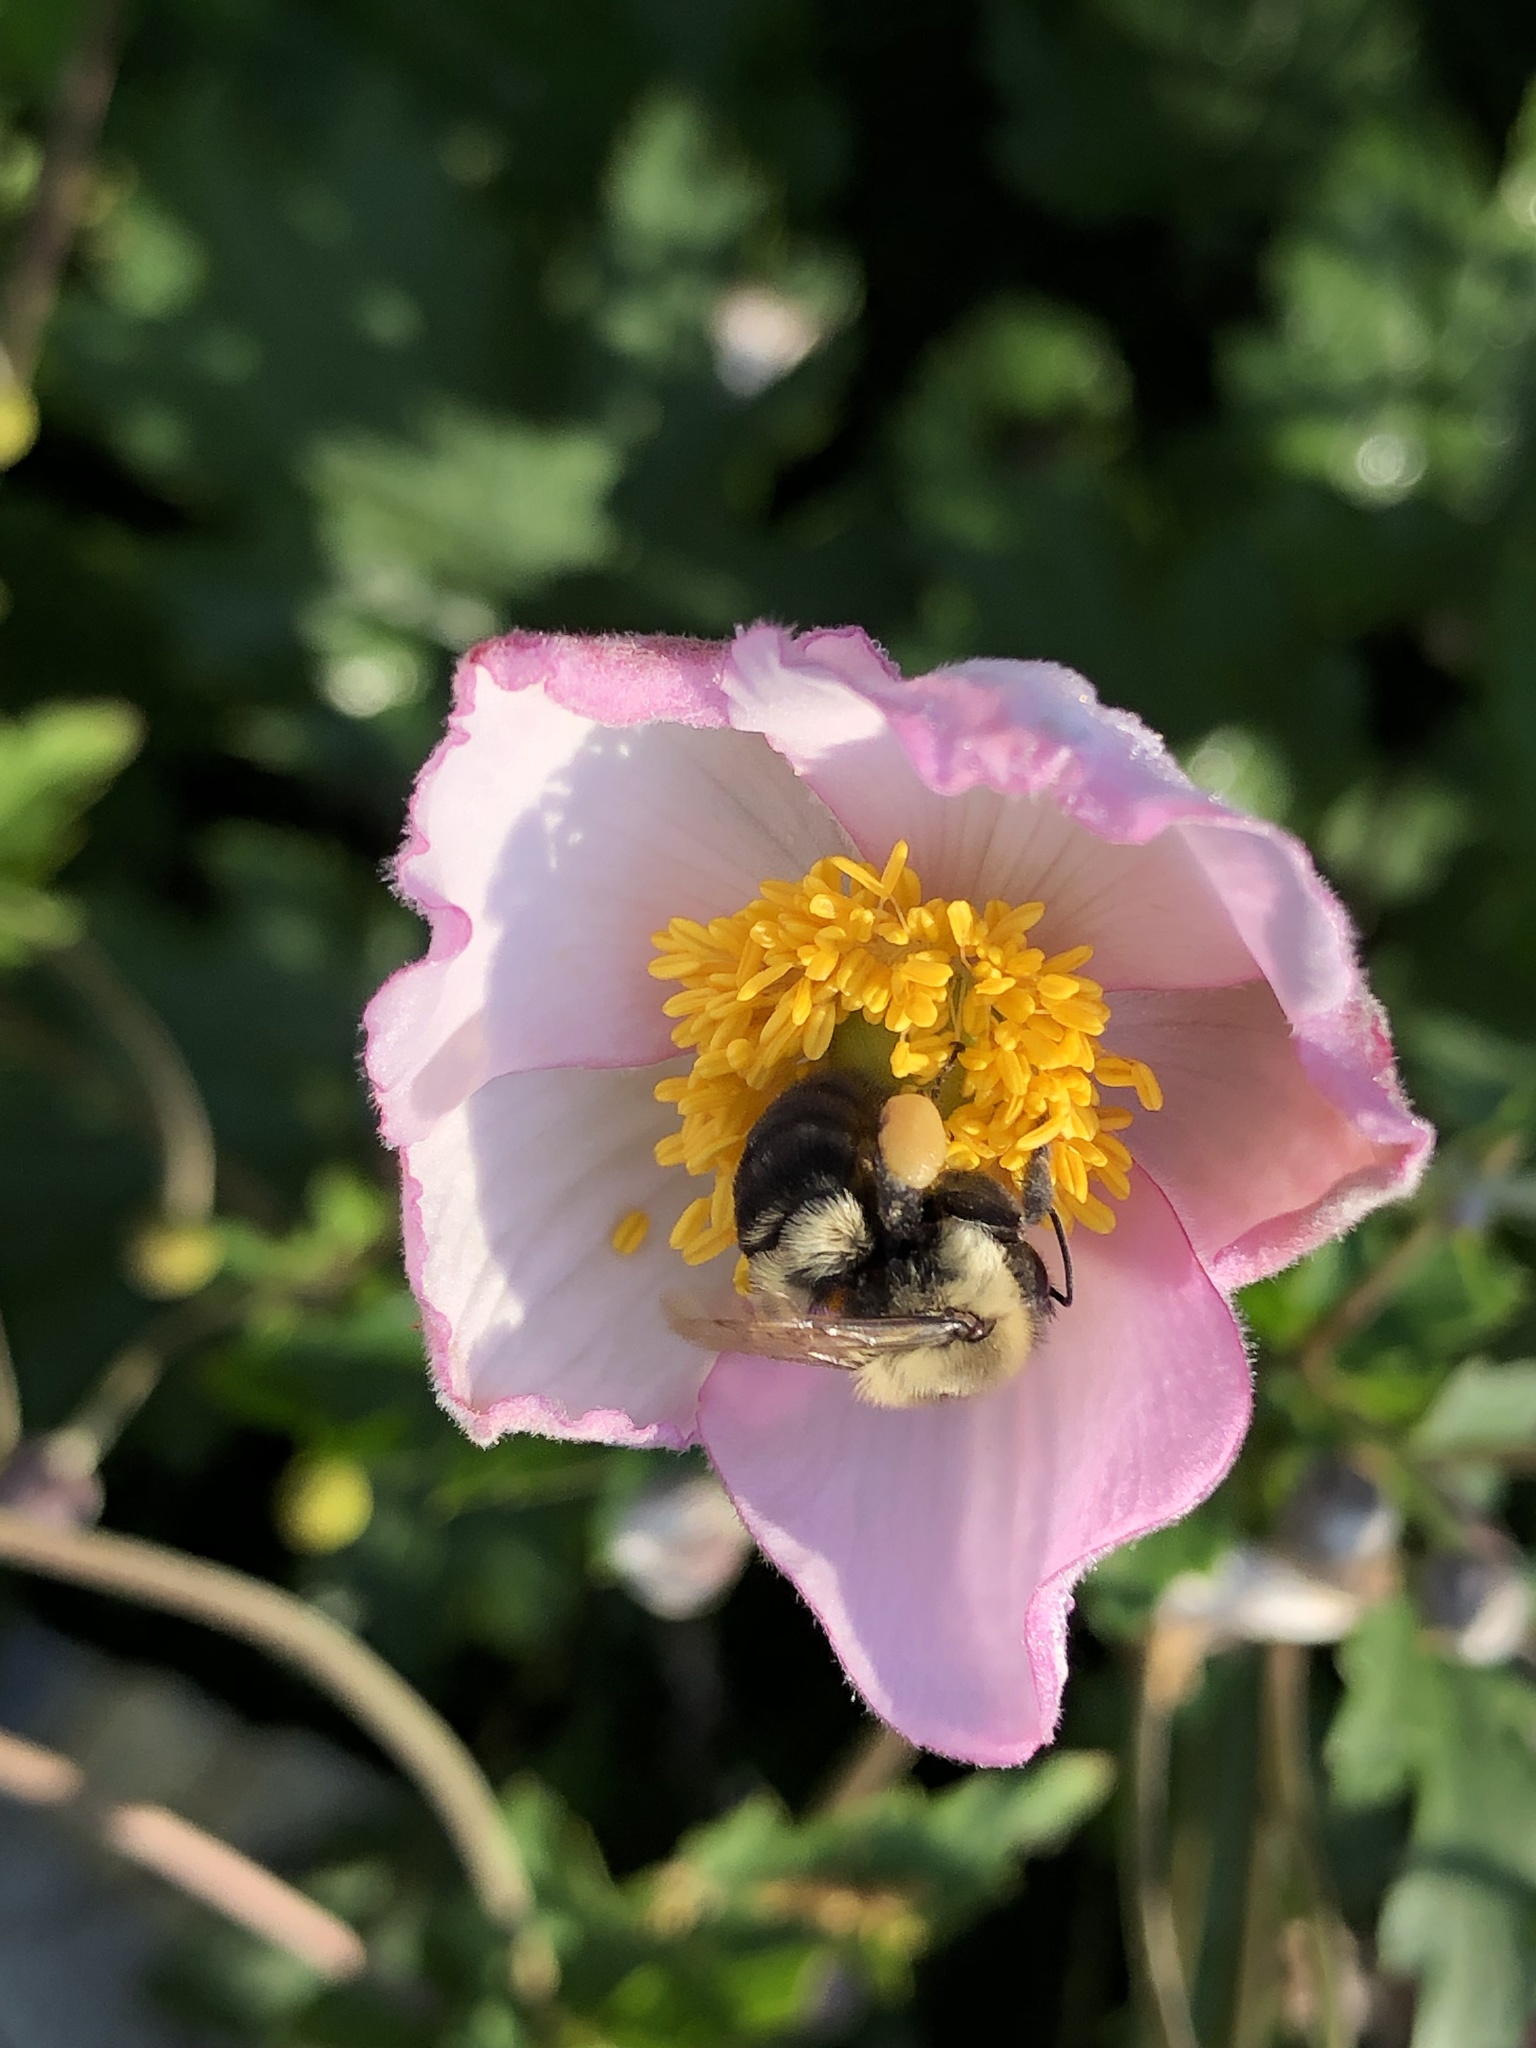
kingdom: Animalia
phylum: Arthropoda
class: Insecta
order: Hymenoptera
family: Apidae
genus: Bombus
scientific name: Bombus impatiens
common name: Common eastern bumble bee
